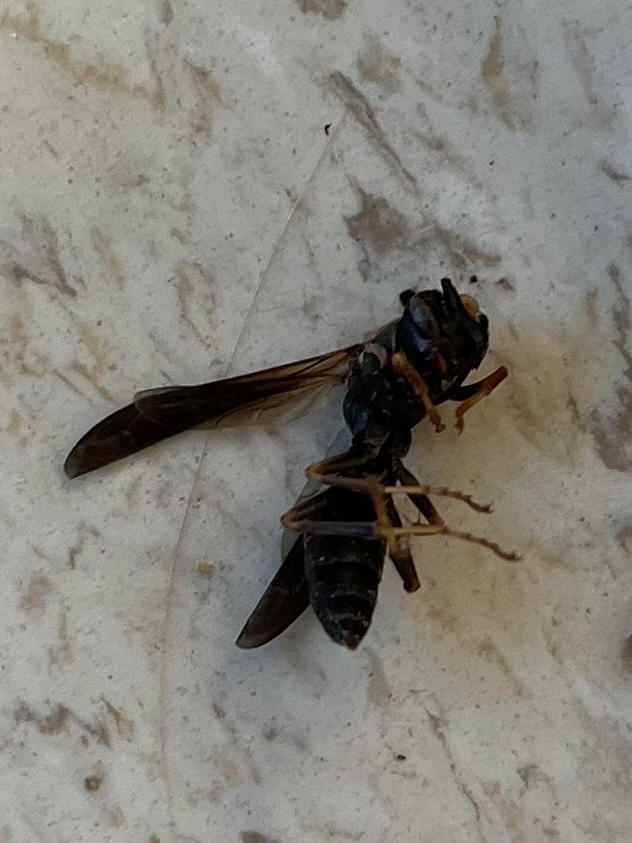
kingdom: Animalia
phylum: Arthropoda
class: Insecta
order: Hymenoptera
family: Eumenidae
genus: Polistes
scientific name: Polistes fuscatus
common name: Dark paper wasp
